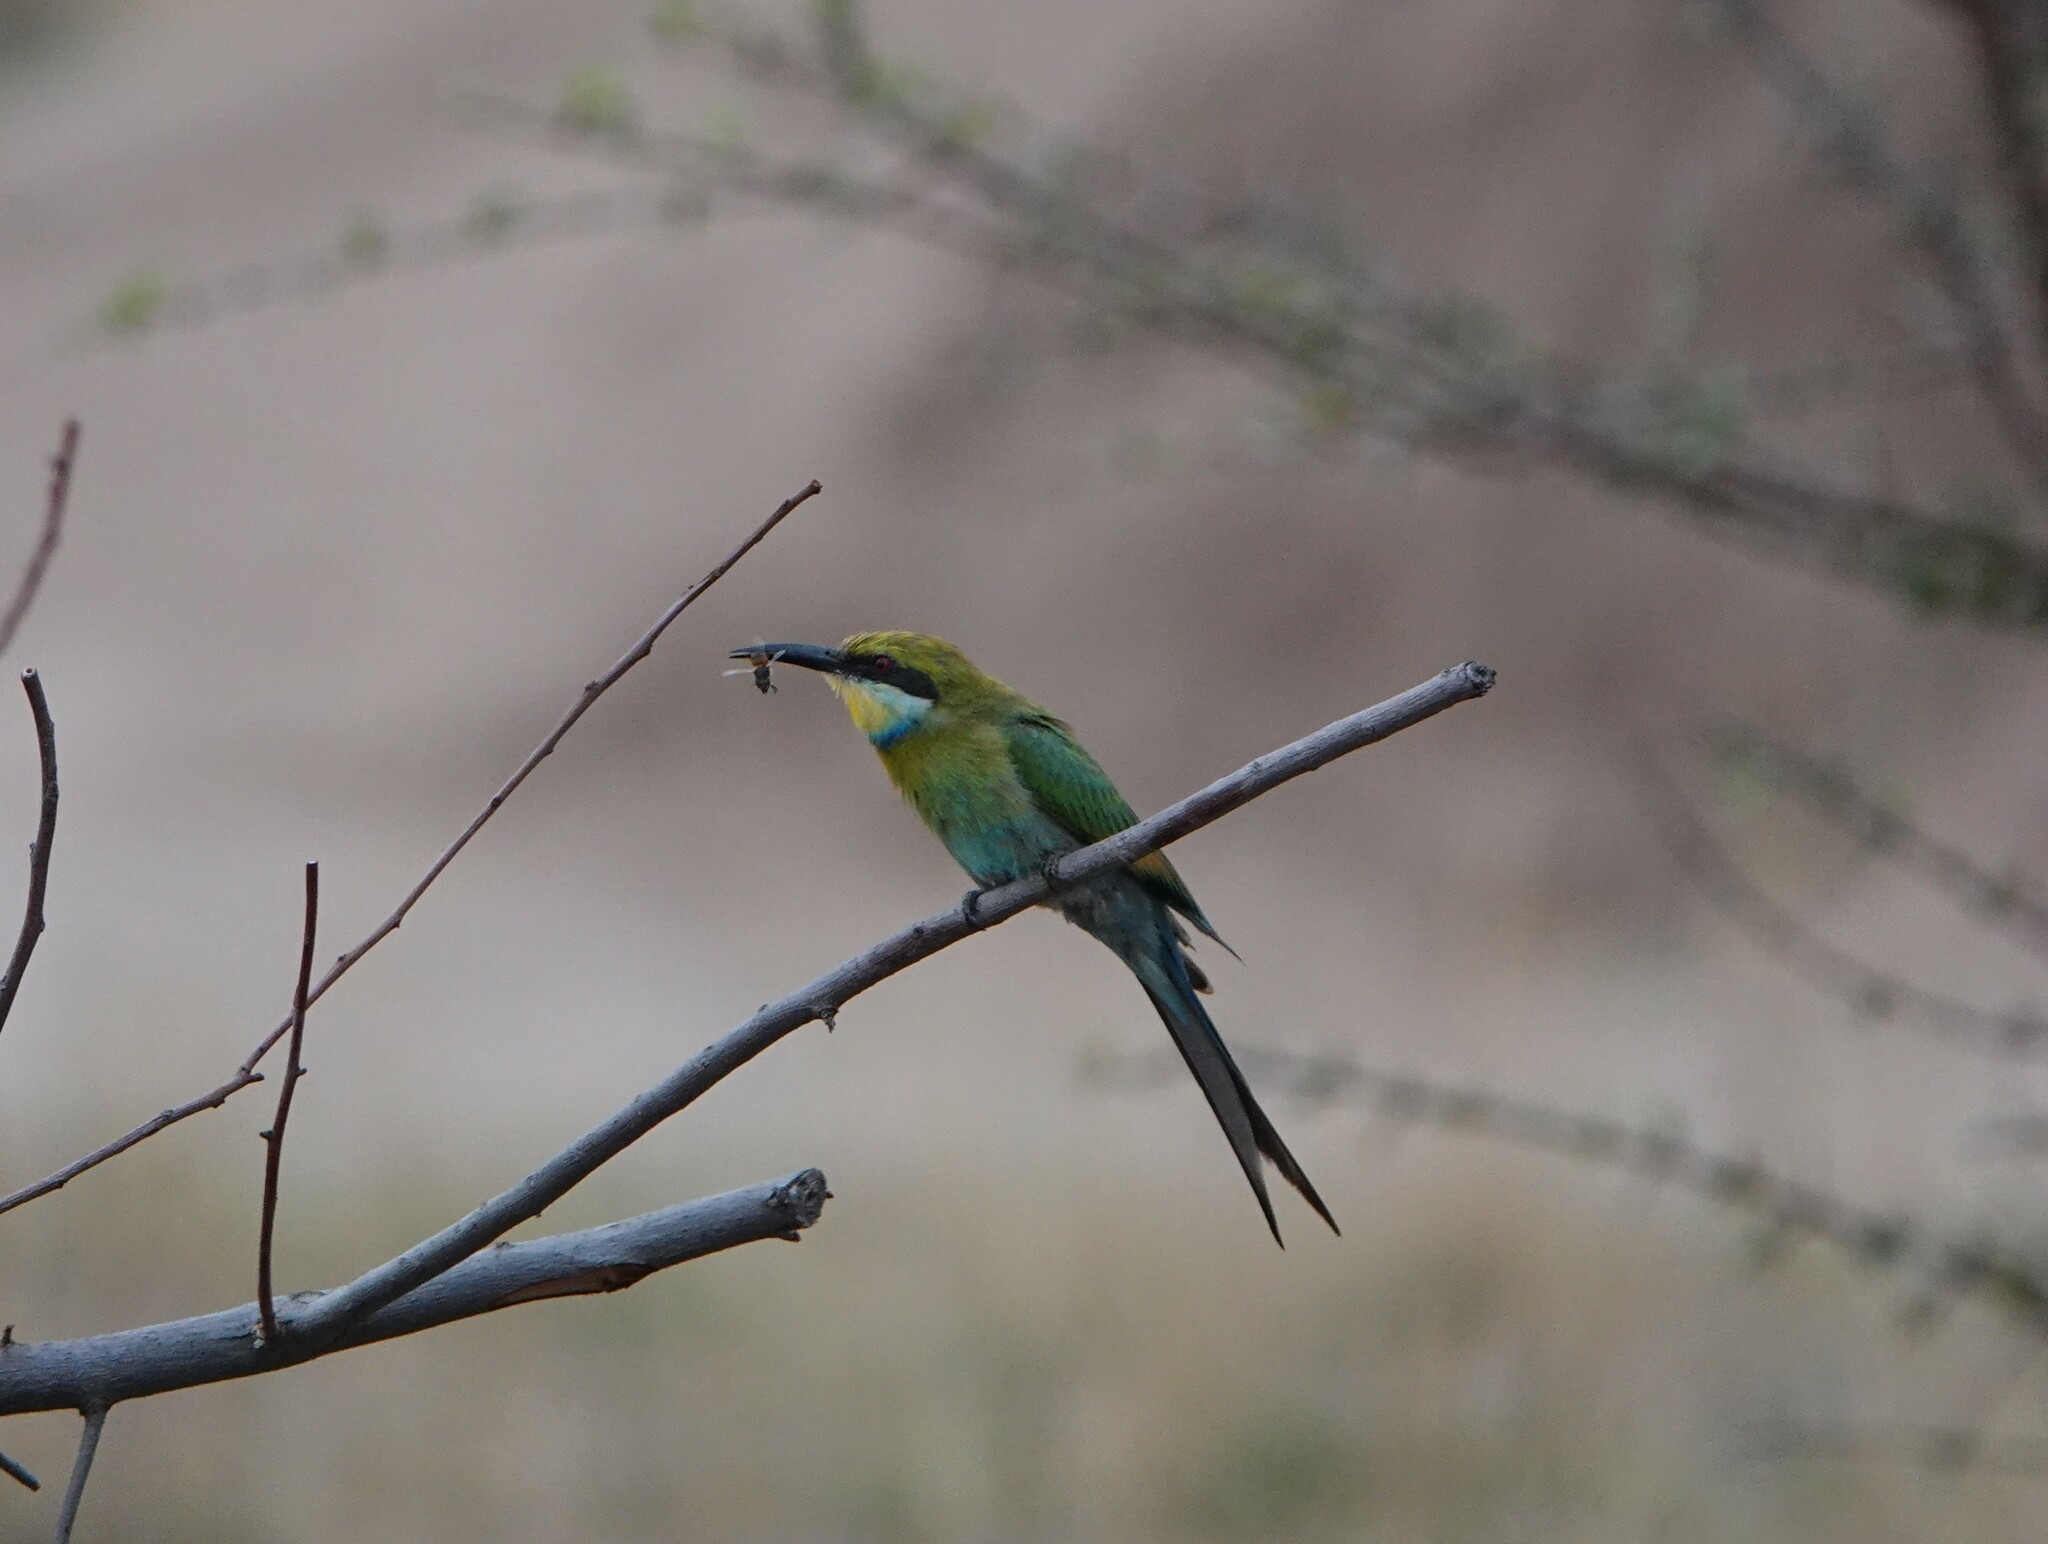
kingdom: Animalia
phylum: Chordata
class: Aves
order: Coraciiformes
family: Meropidae
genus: Merops
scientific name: Merops hirundineus
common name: Swallow-tailed bee-eater
